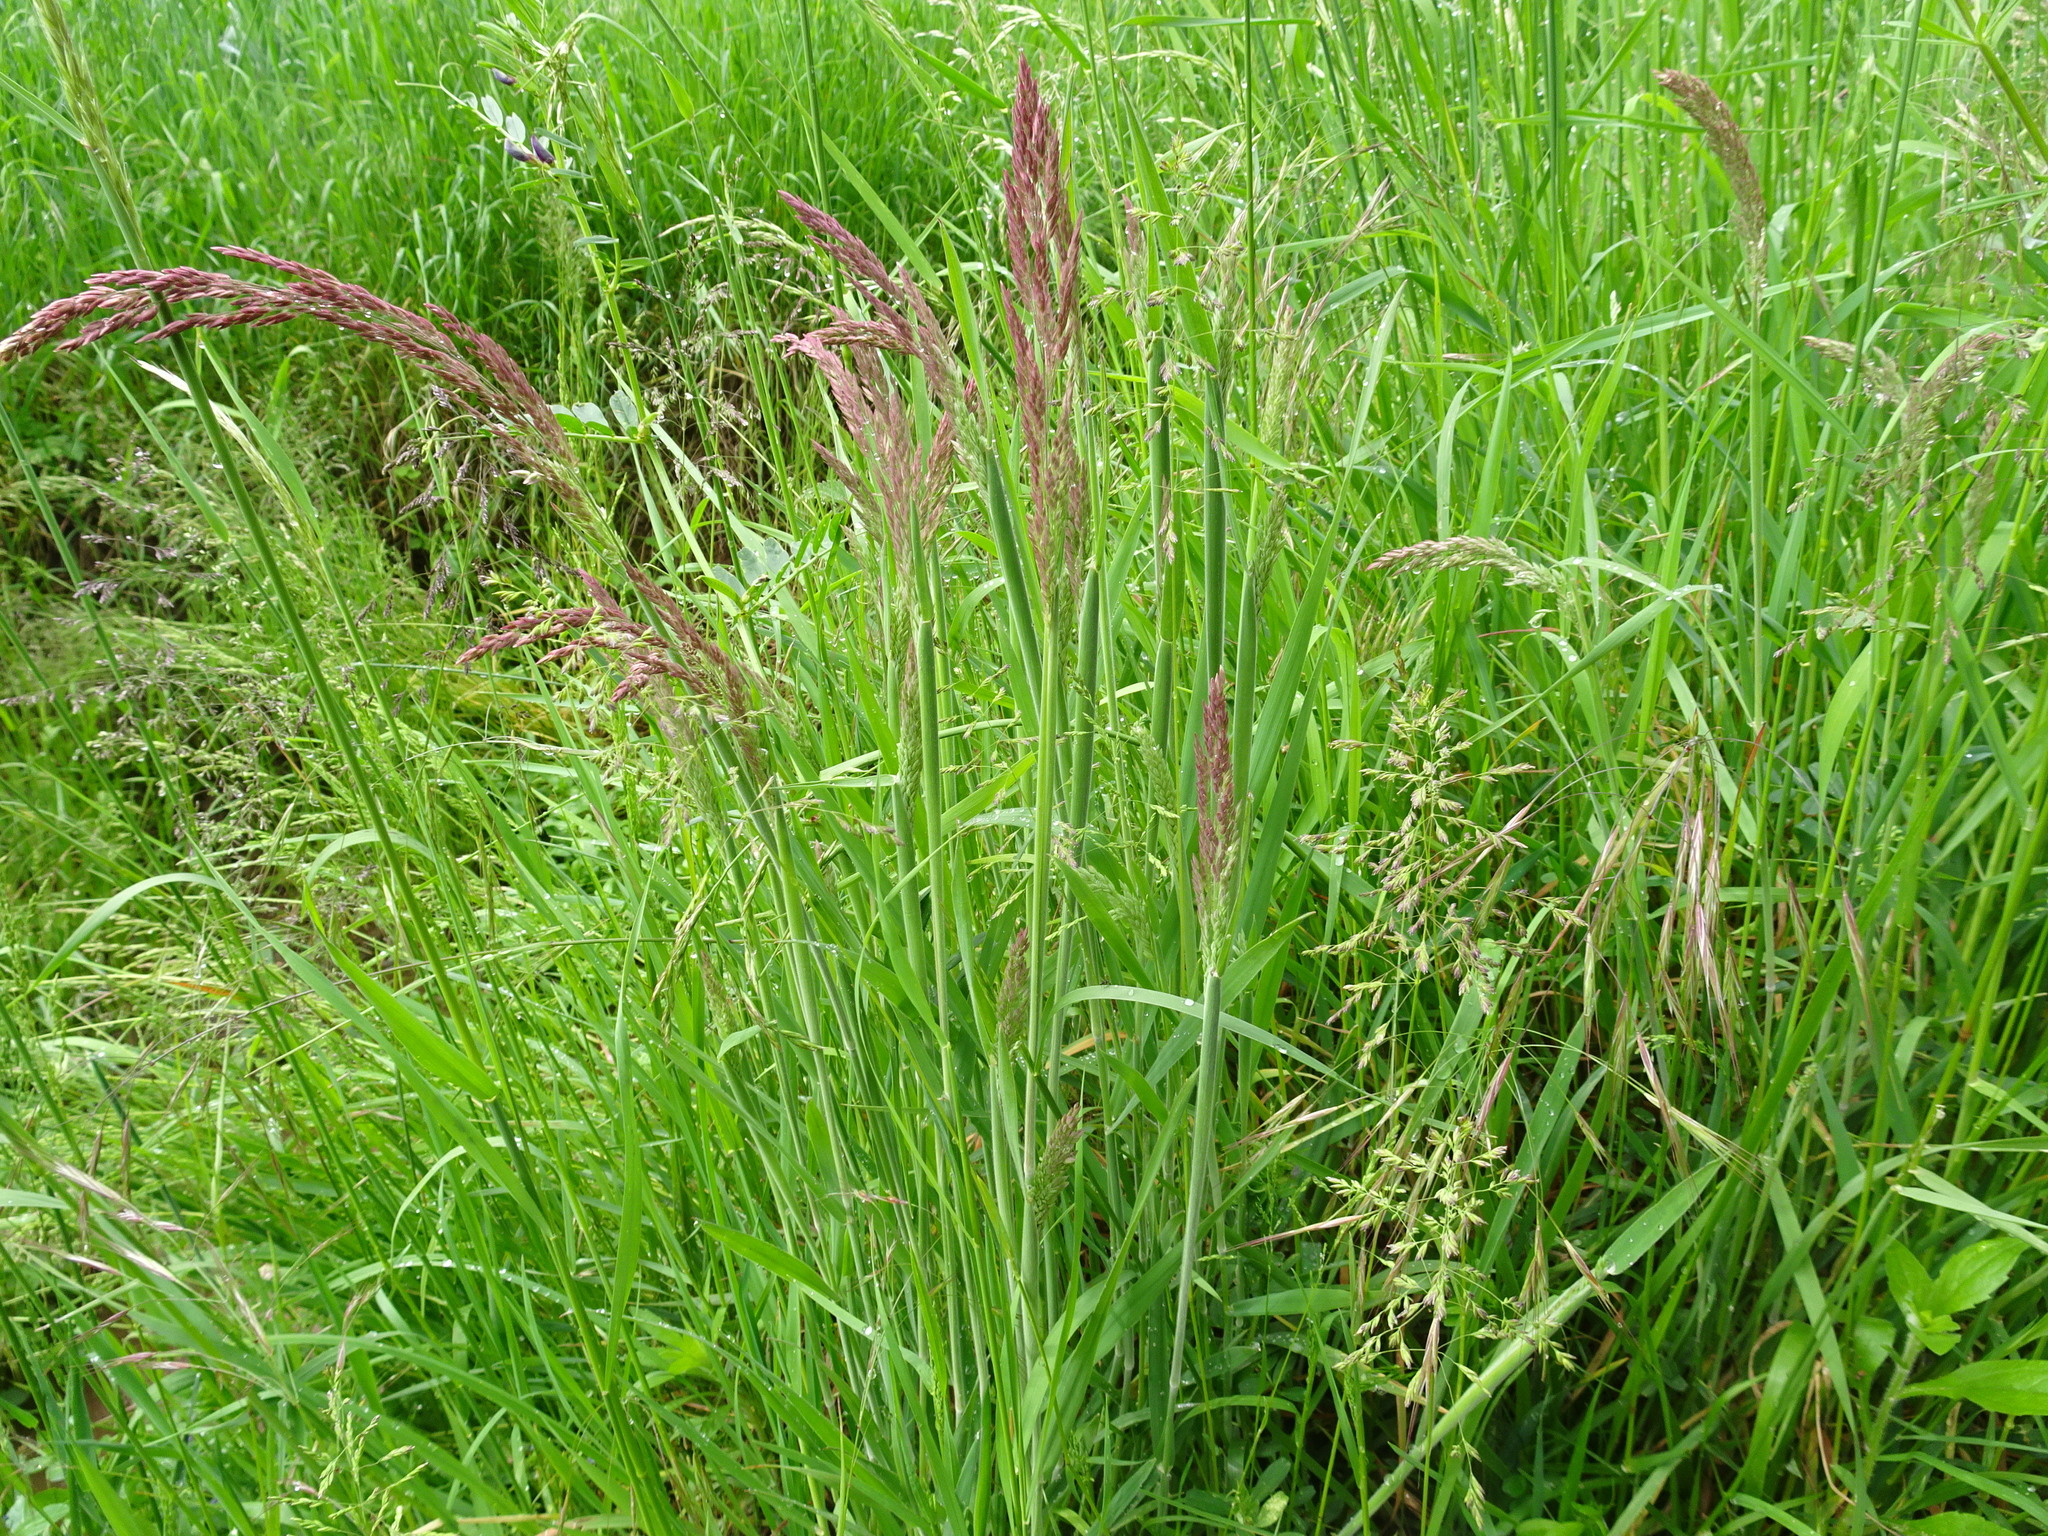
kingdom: Plantae
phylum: Tracheophyta
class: Liliopsida
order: Poales
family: Poaceae
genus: Holcus
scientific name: Holcus lanatus
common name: Yorkshire-fog
